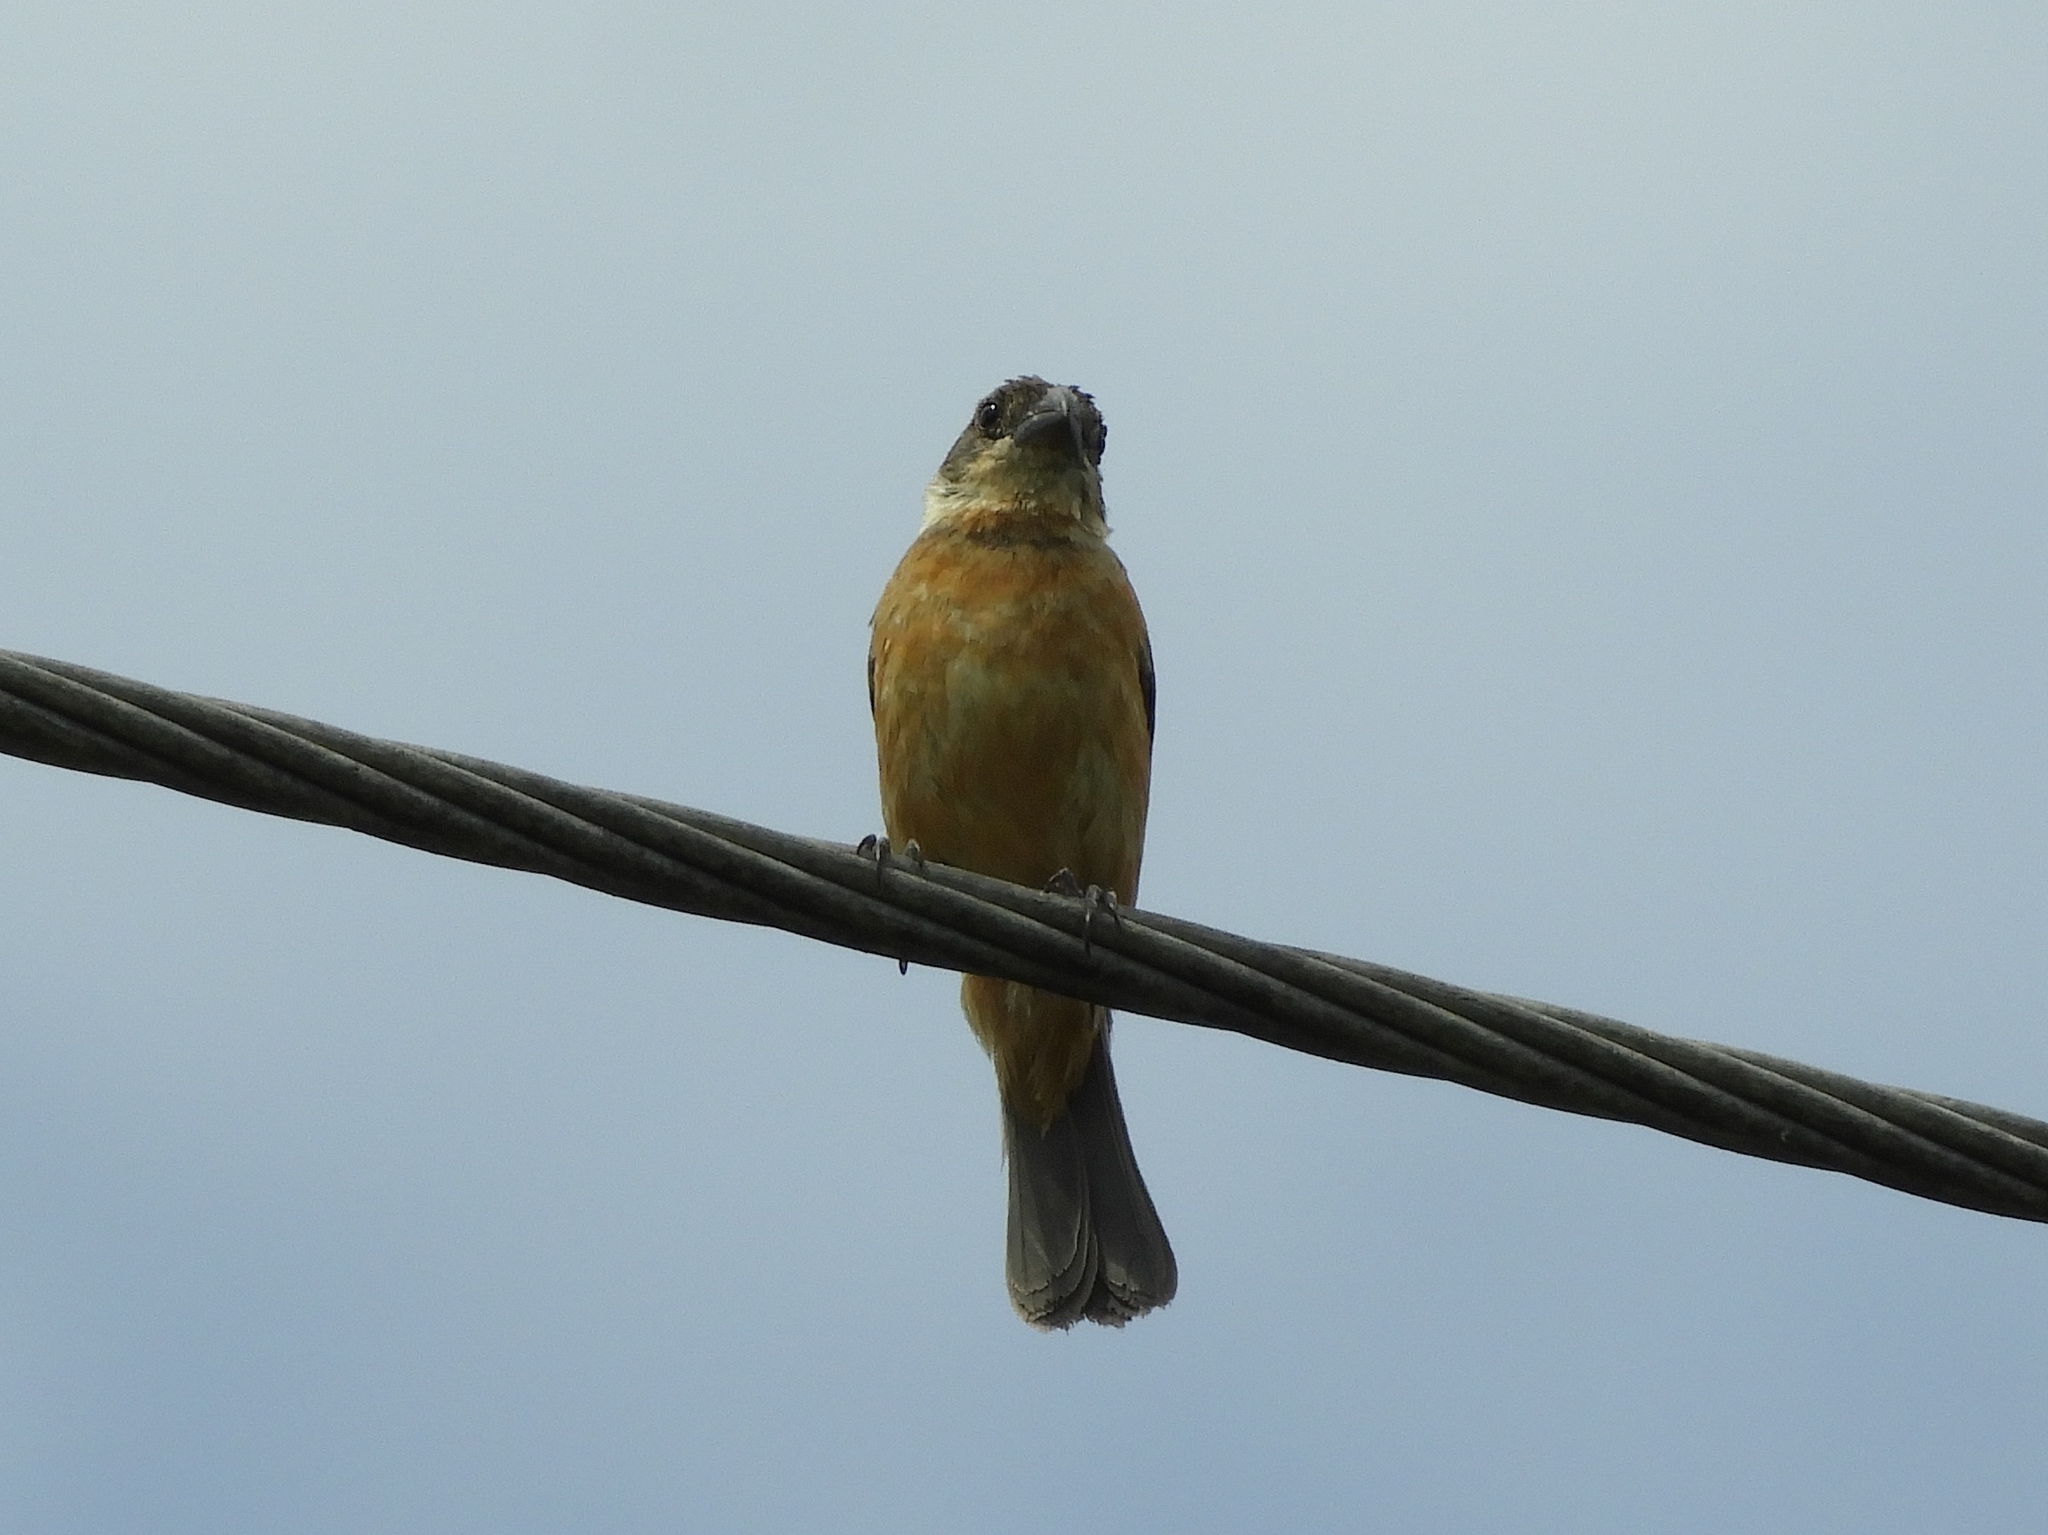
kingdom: Animalia
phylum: Chordata
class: Aves
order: Passeriformes
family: Thraupidae
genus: Sporophila
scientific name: Sporophila torqueola
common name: White-collared seedeater
